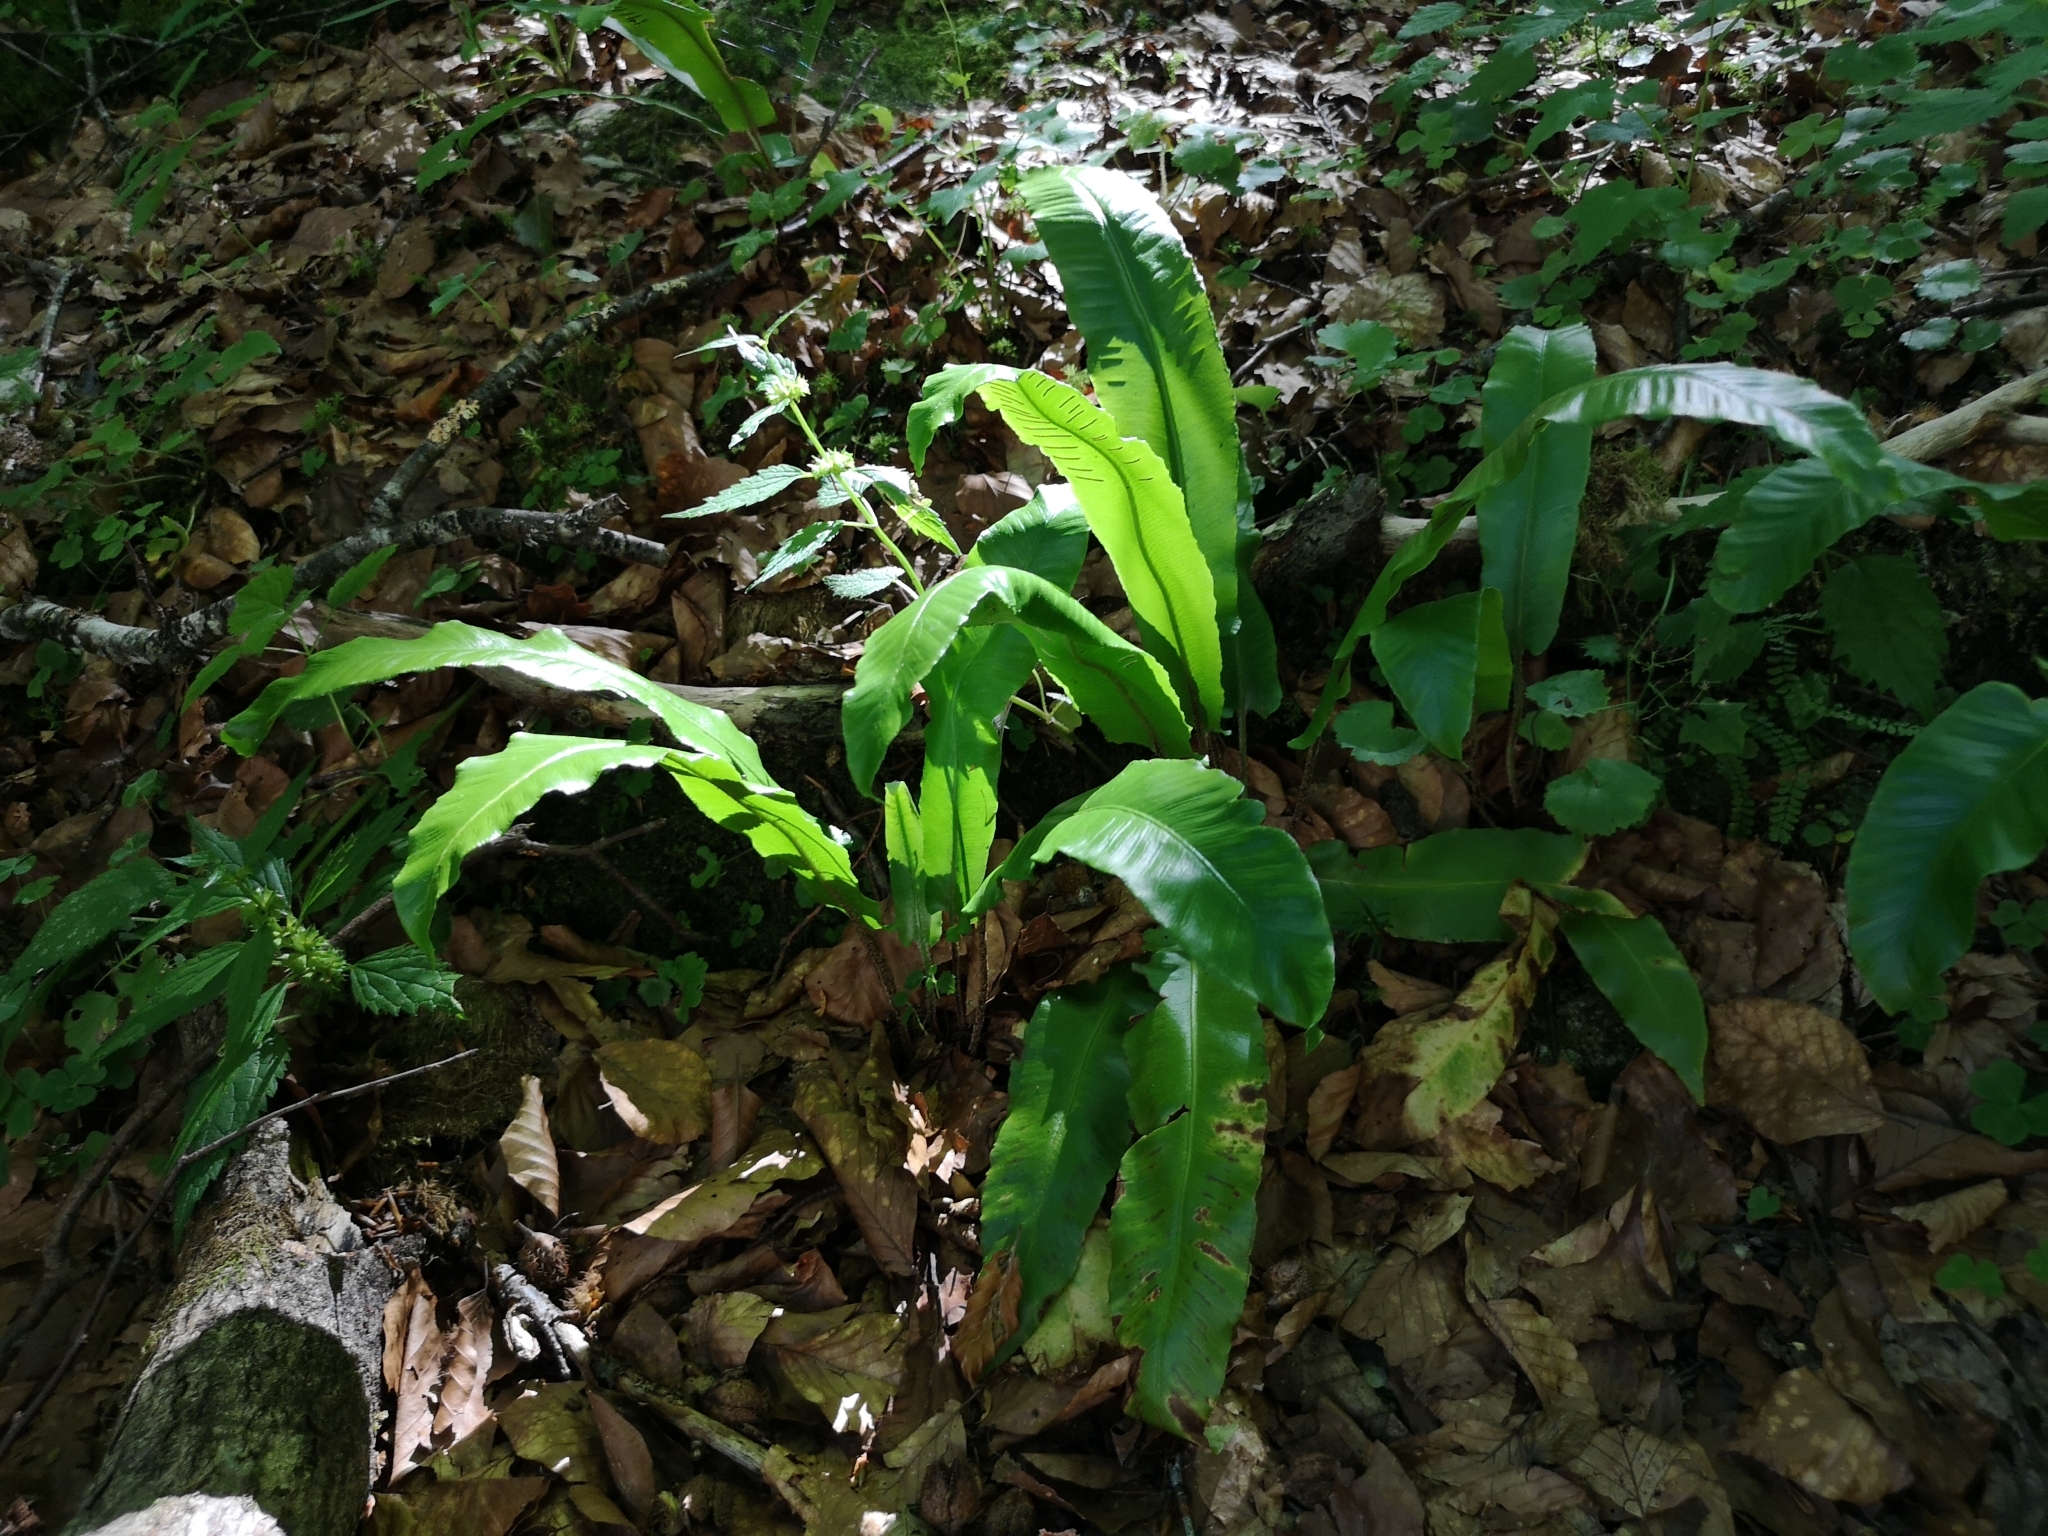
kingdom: Plantae
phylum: Tracheophyta
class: Polypodiopsida
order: Polypodiales
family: Aspleniaceae
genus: Asplenium
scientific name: Asplenium scolopendrium
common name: Hart's-tongue fern
